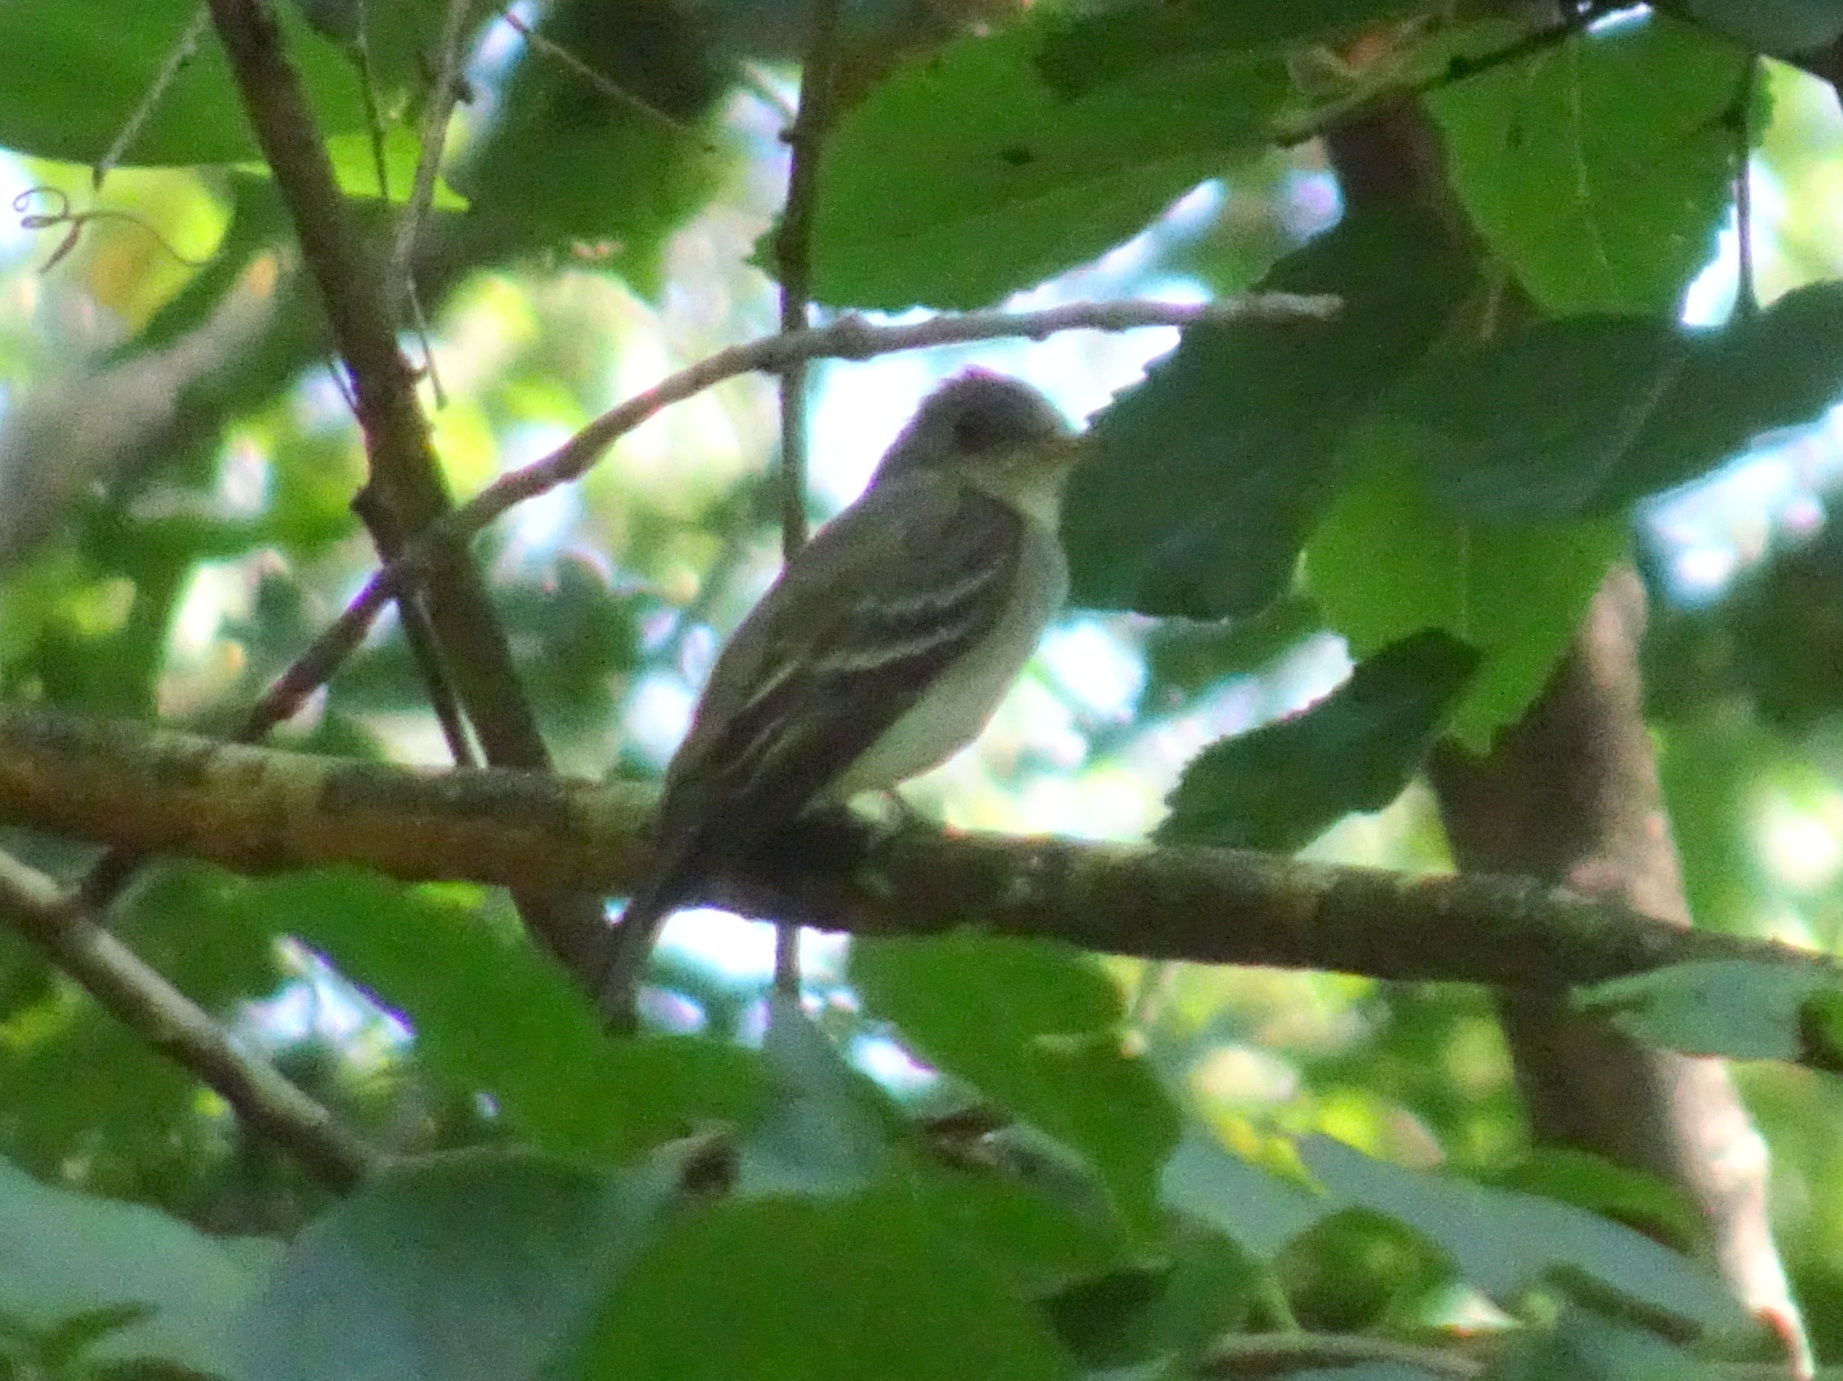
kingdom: Animalia
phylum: Chordata
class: Aves
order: Passeriformes
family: Tyrannidae
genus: Contopus
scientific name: Contopus virens
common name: Eastern wood-pewee
